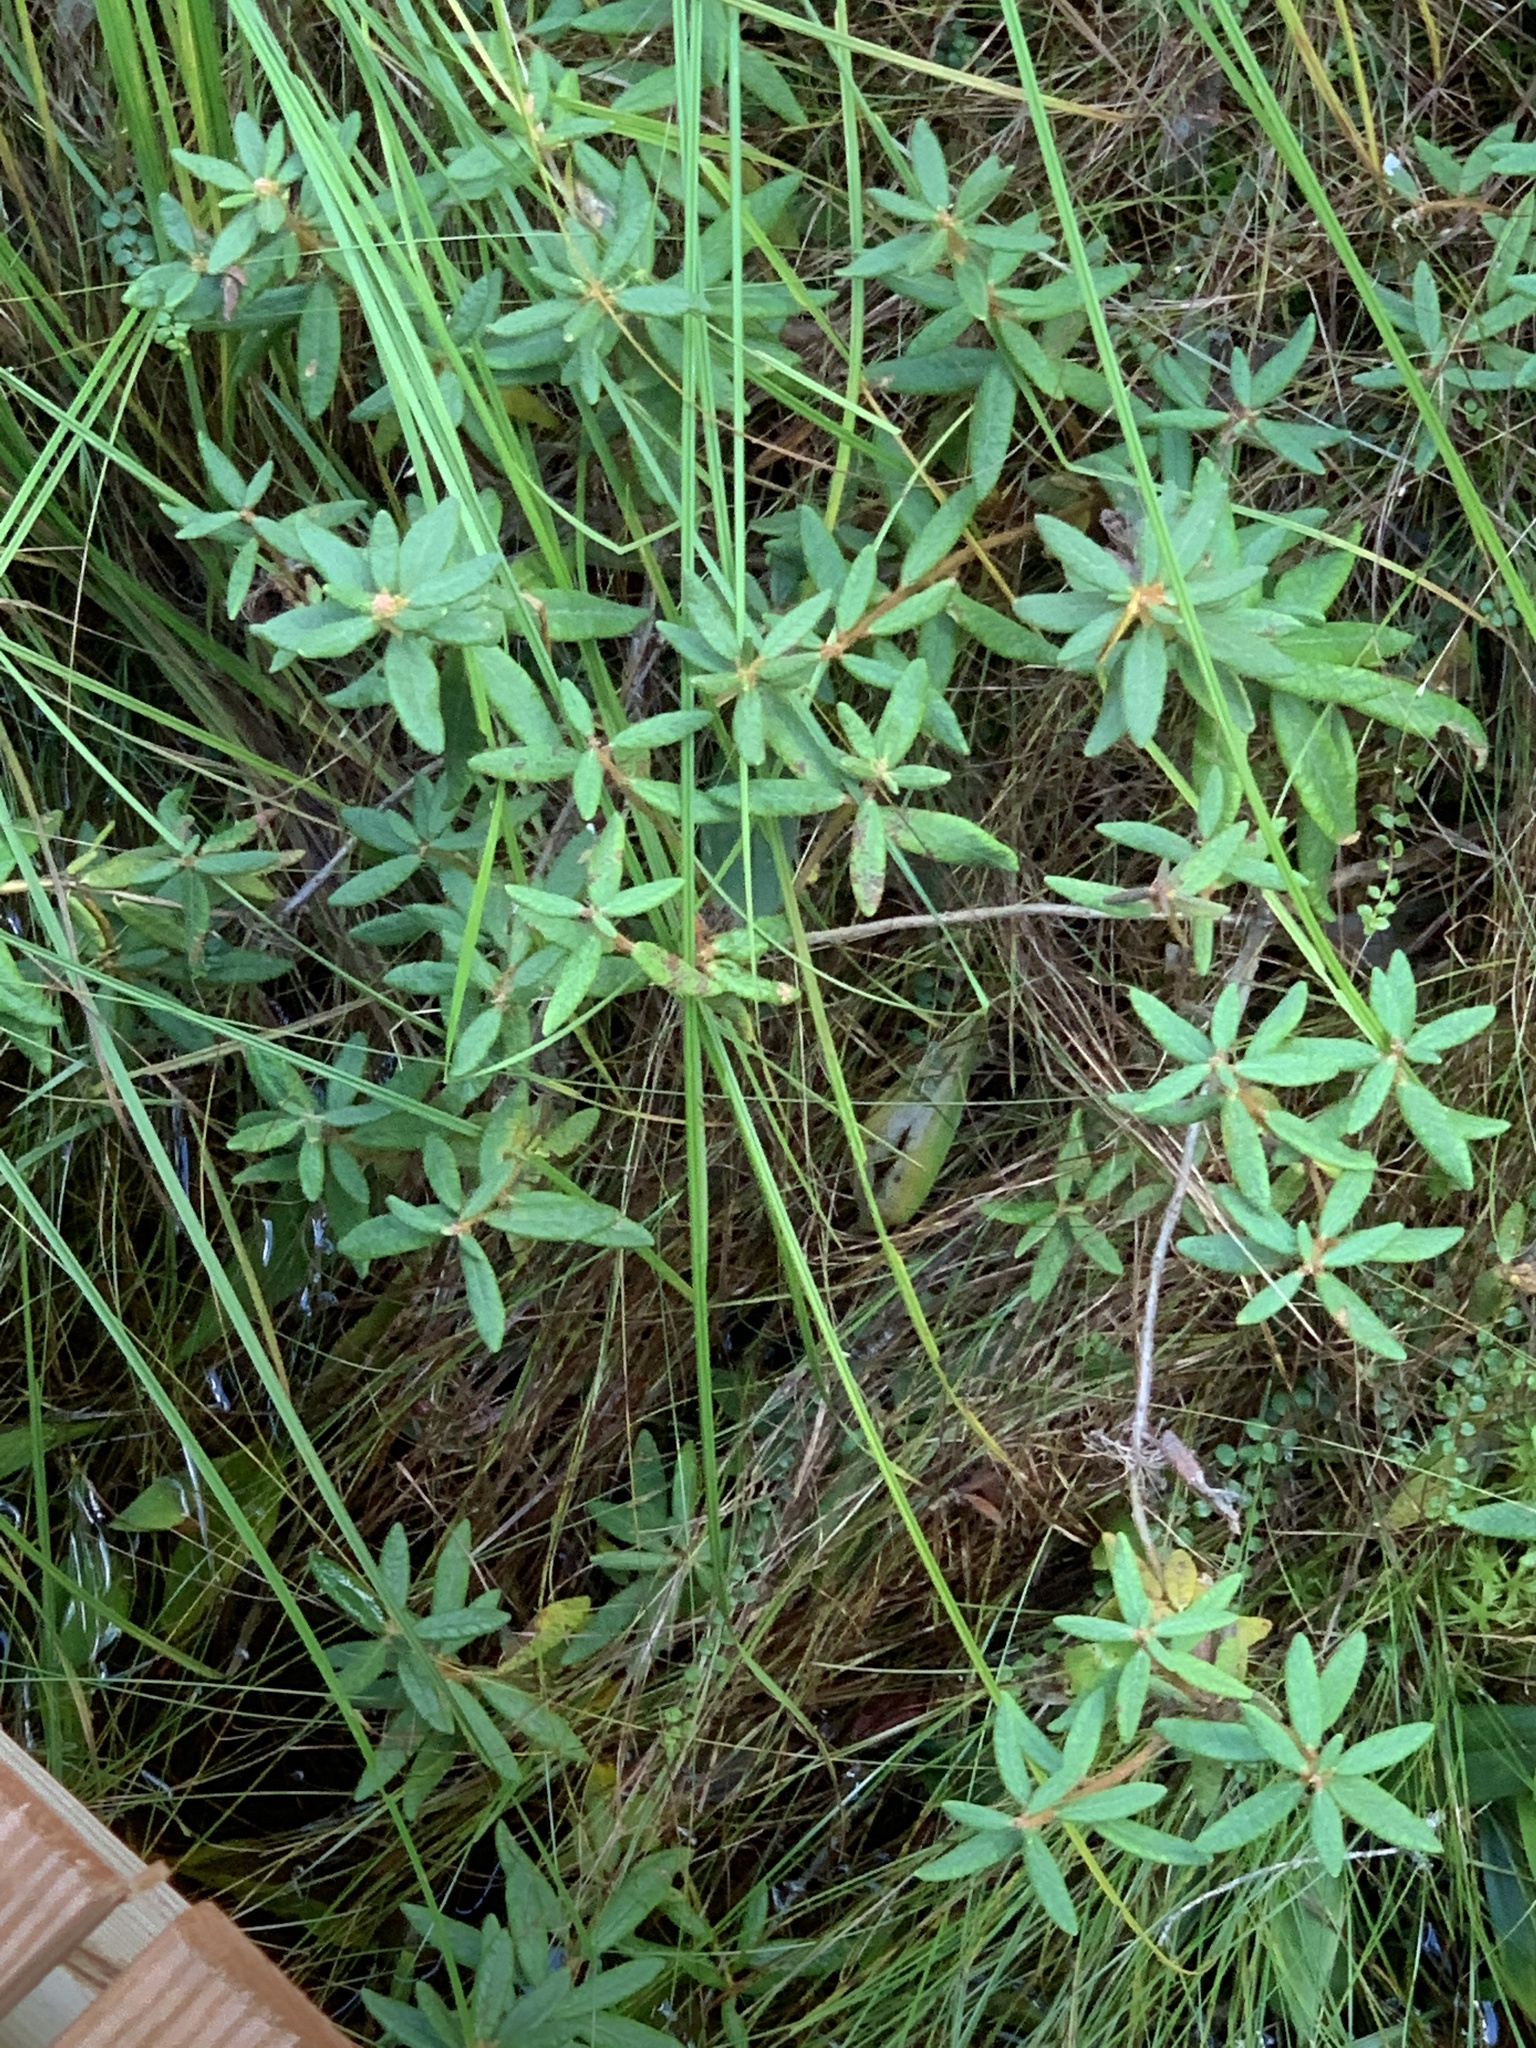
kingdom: Plantae
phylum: Tracheophyta
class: Magnoliopsida
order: Ericales
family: Ericaceae
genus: Rhododendron
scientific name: Rhododendron groenlandicum
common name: Bog labrador tea
